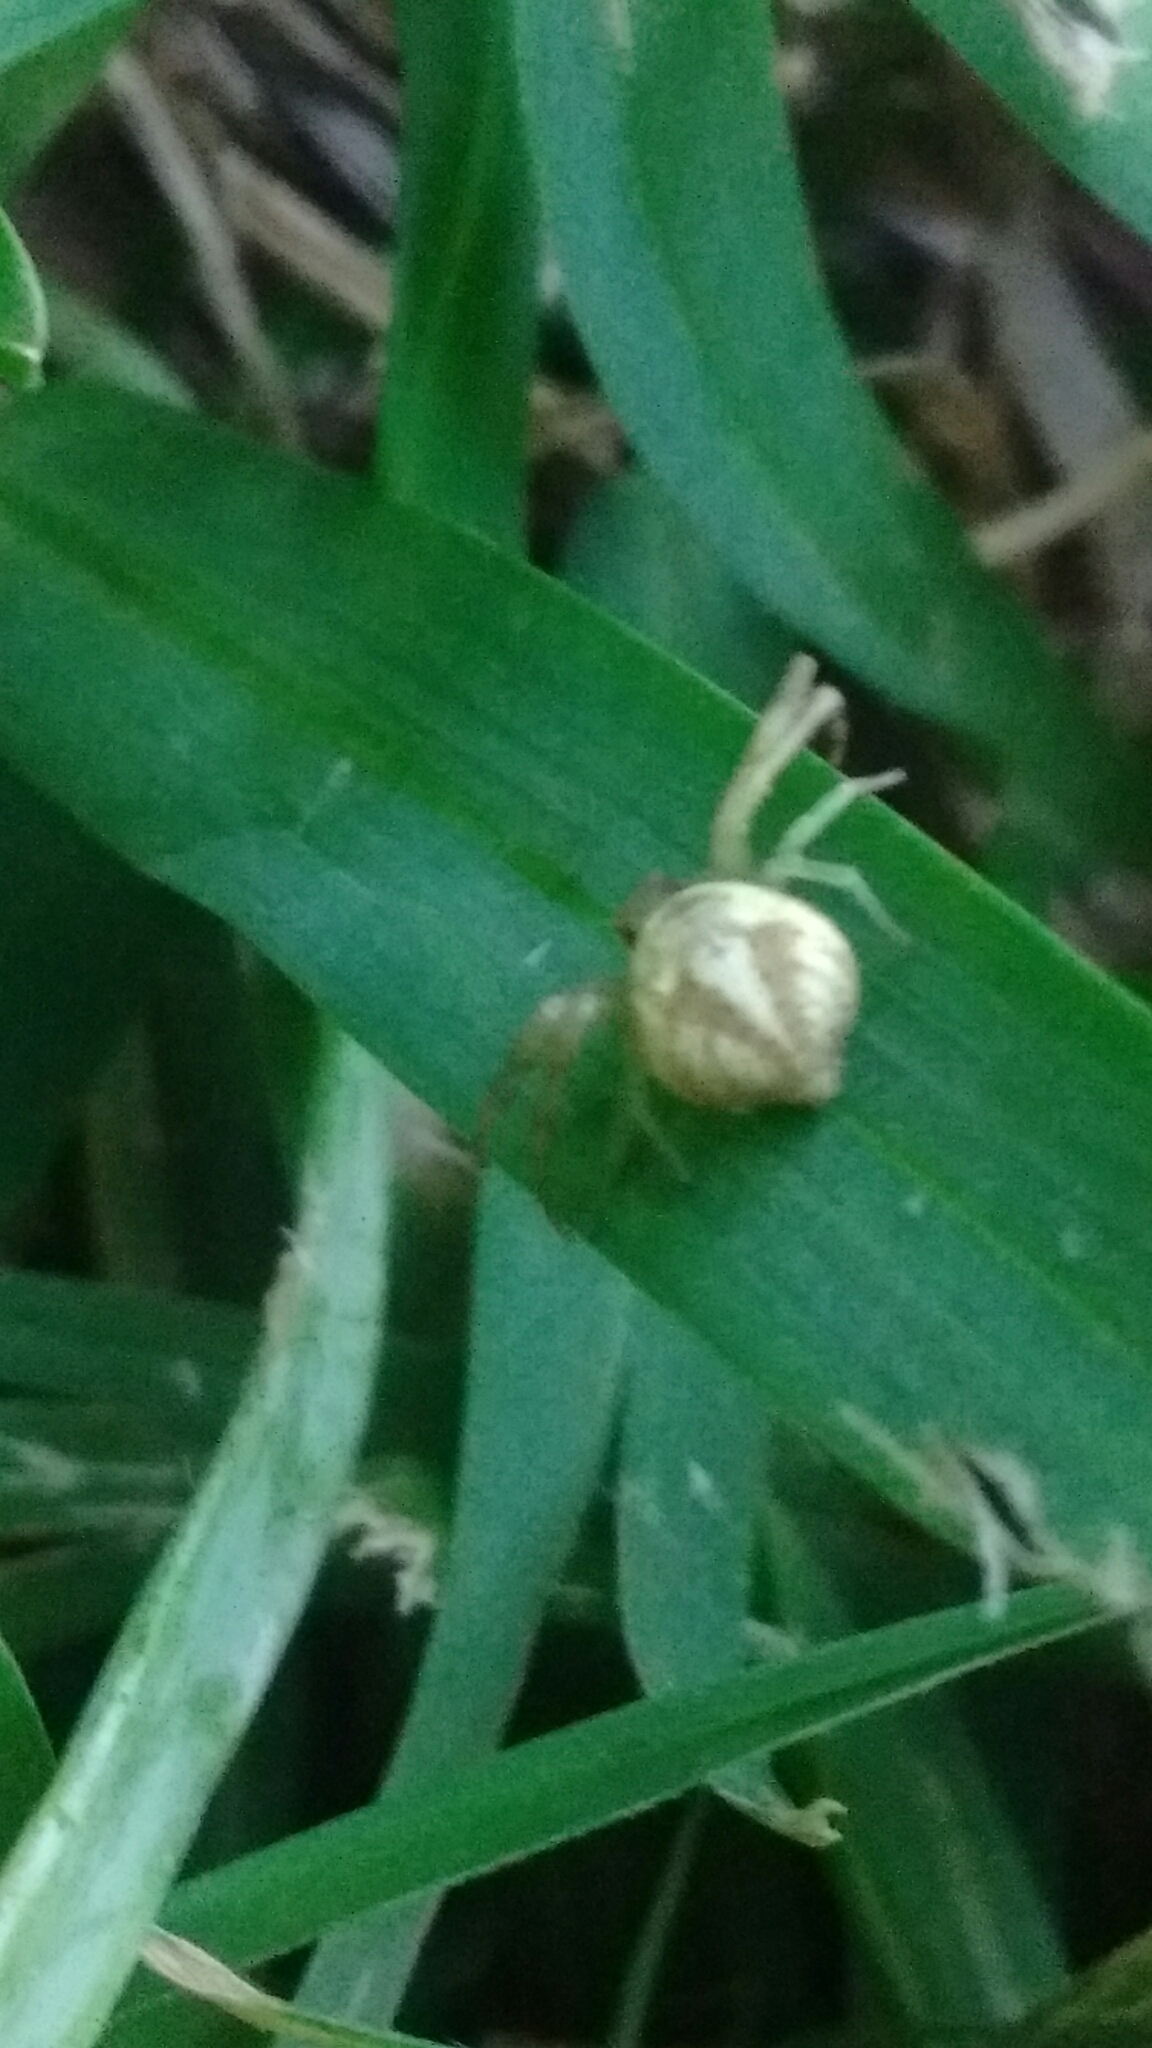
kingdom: Animalia
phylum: Arthropoda
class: Arachnida
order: Araneae
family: Thomisidae
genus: Misumenops
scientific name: Misumenops
